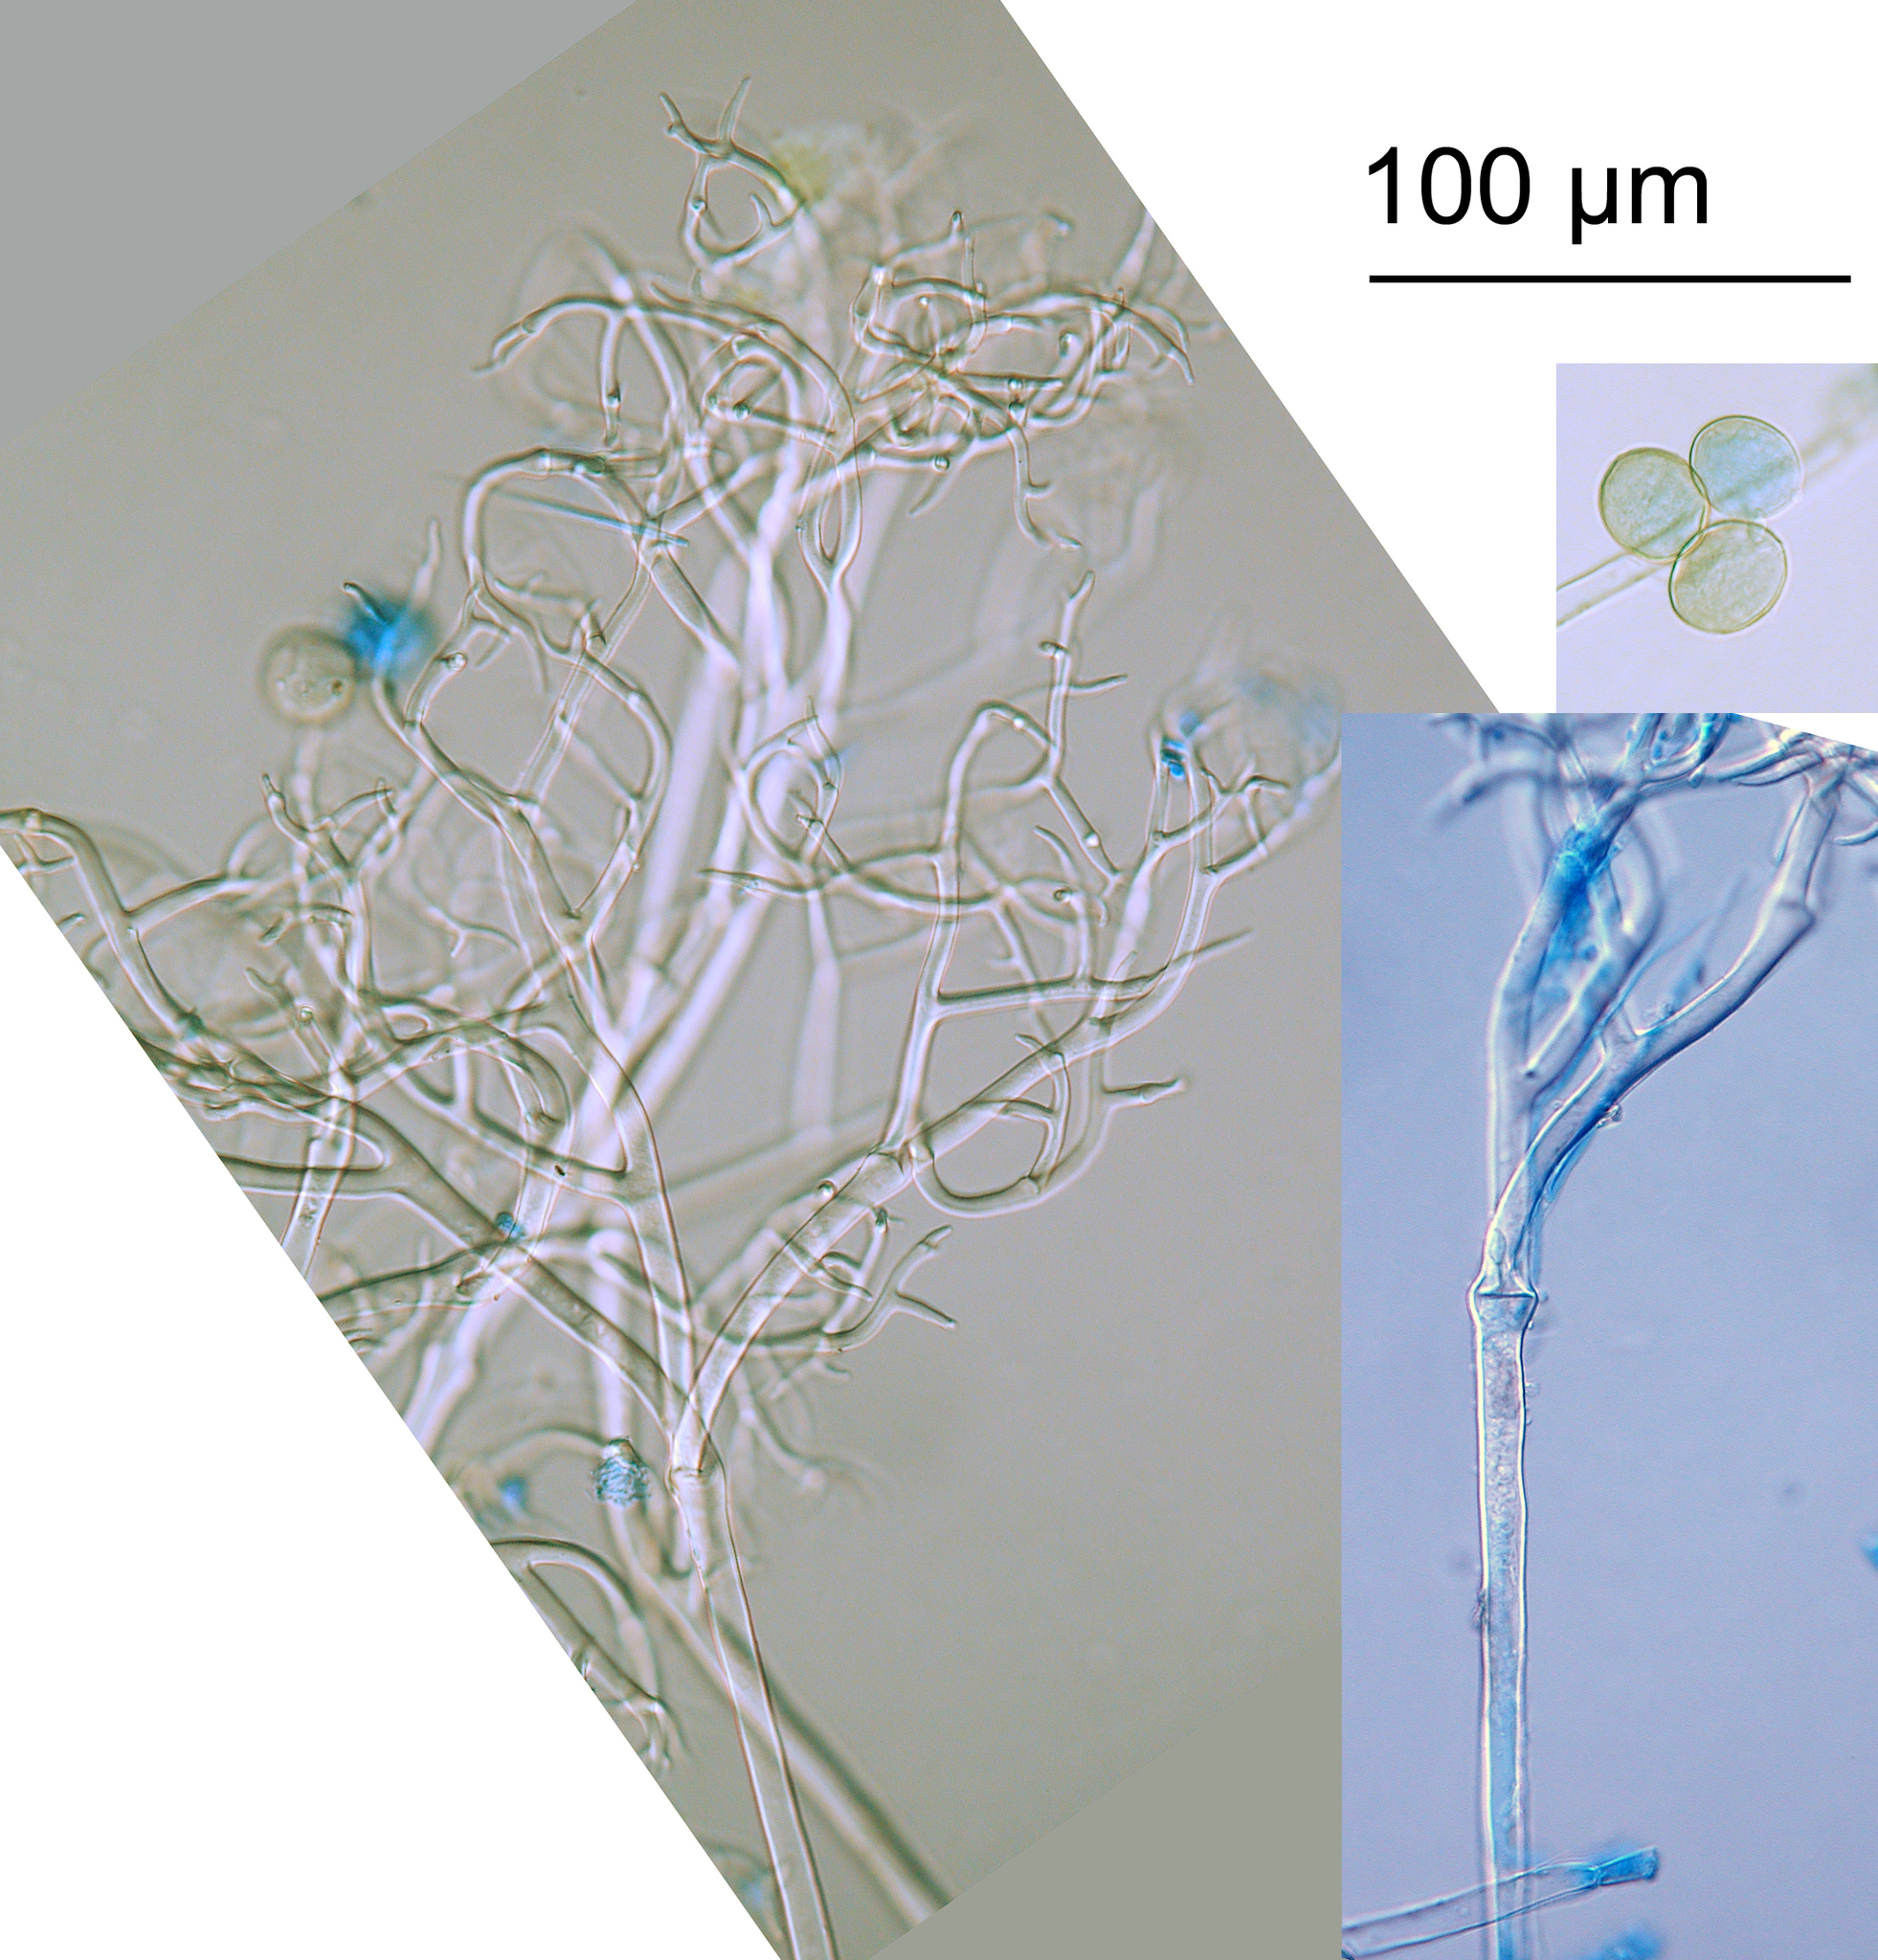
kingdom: Chromista
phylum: Oomycota
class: Peronosporea
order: Peronosporales
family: Peronosporaceae
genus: Peronospora
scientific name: Peronospora conglomerata
